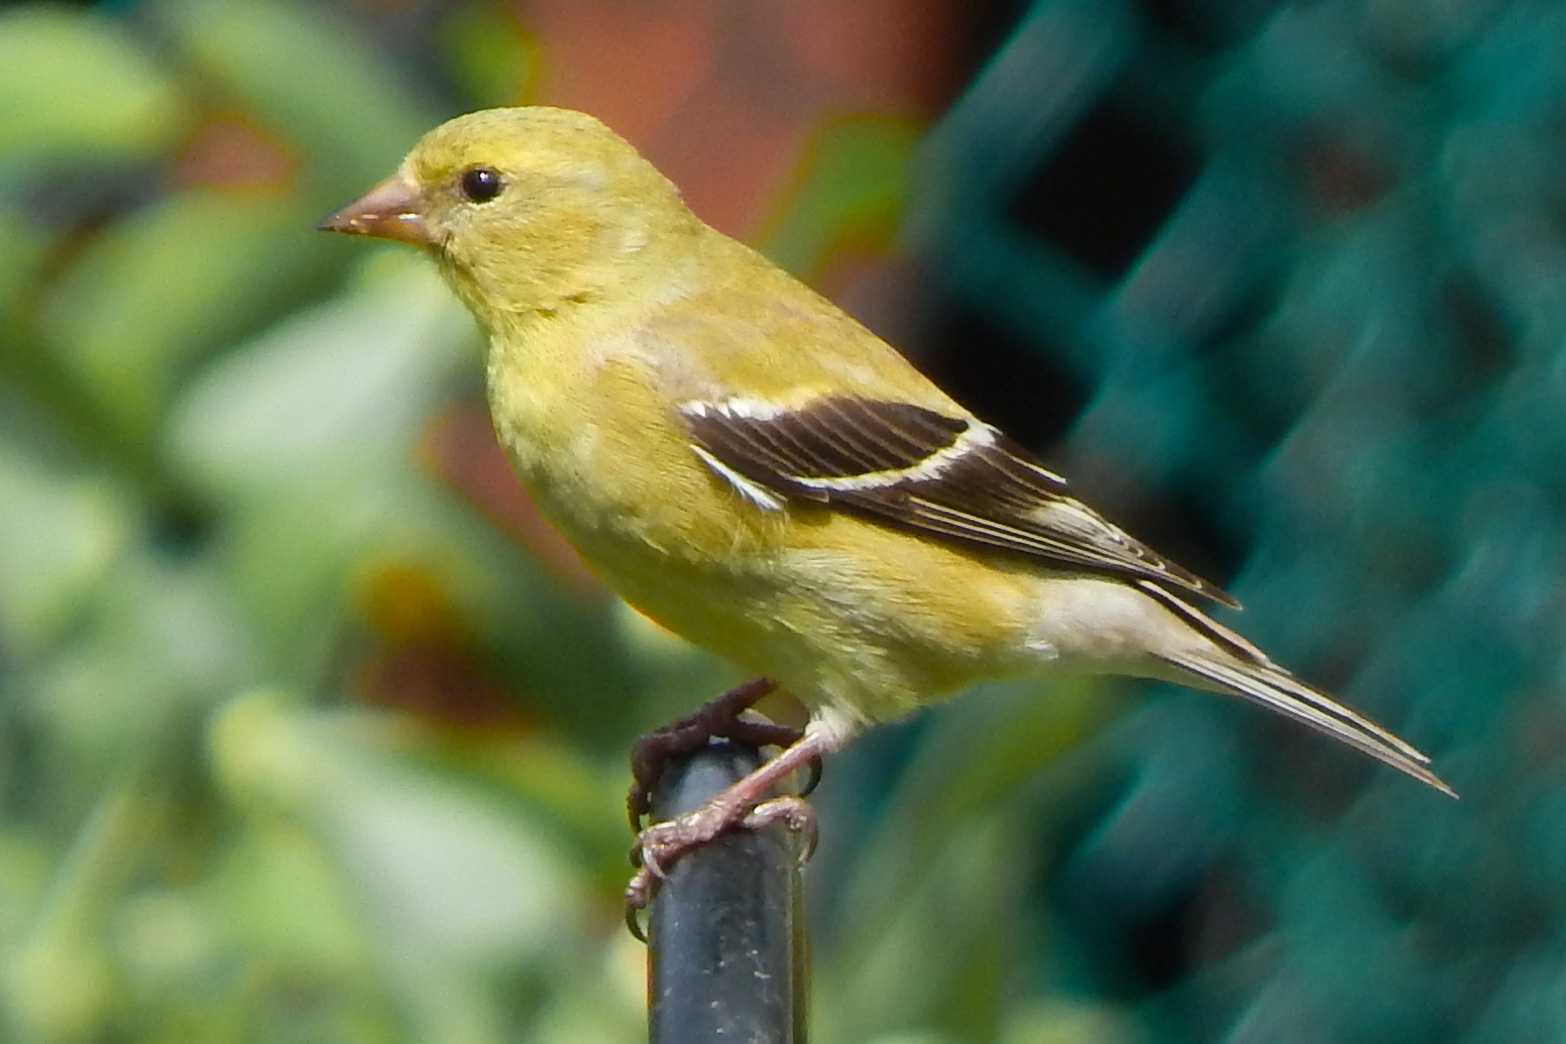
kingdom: Animalia
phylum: Chordata
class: Aves
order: Passeriformes
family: Fringillidae
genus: Spinus
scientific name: Spinus tristis
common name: American goldfinch
